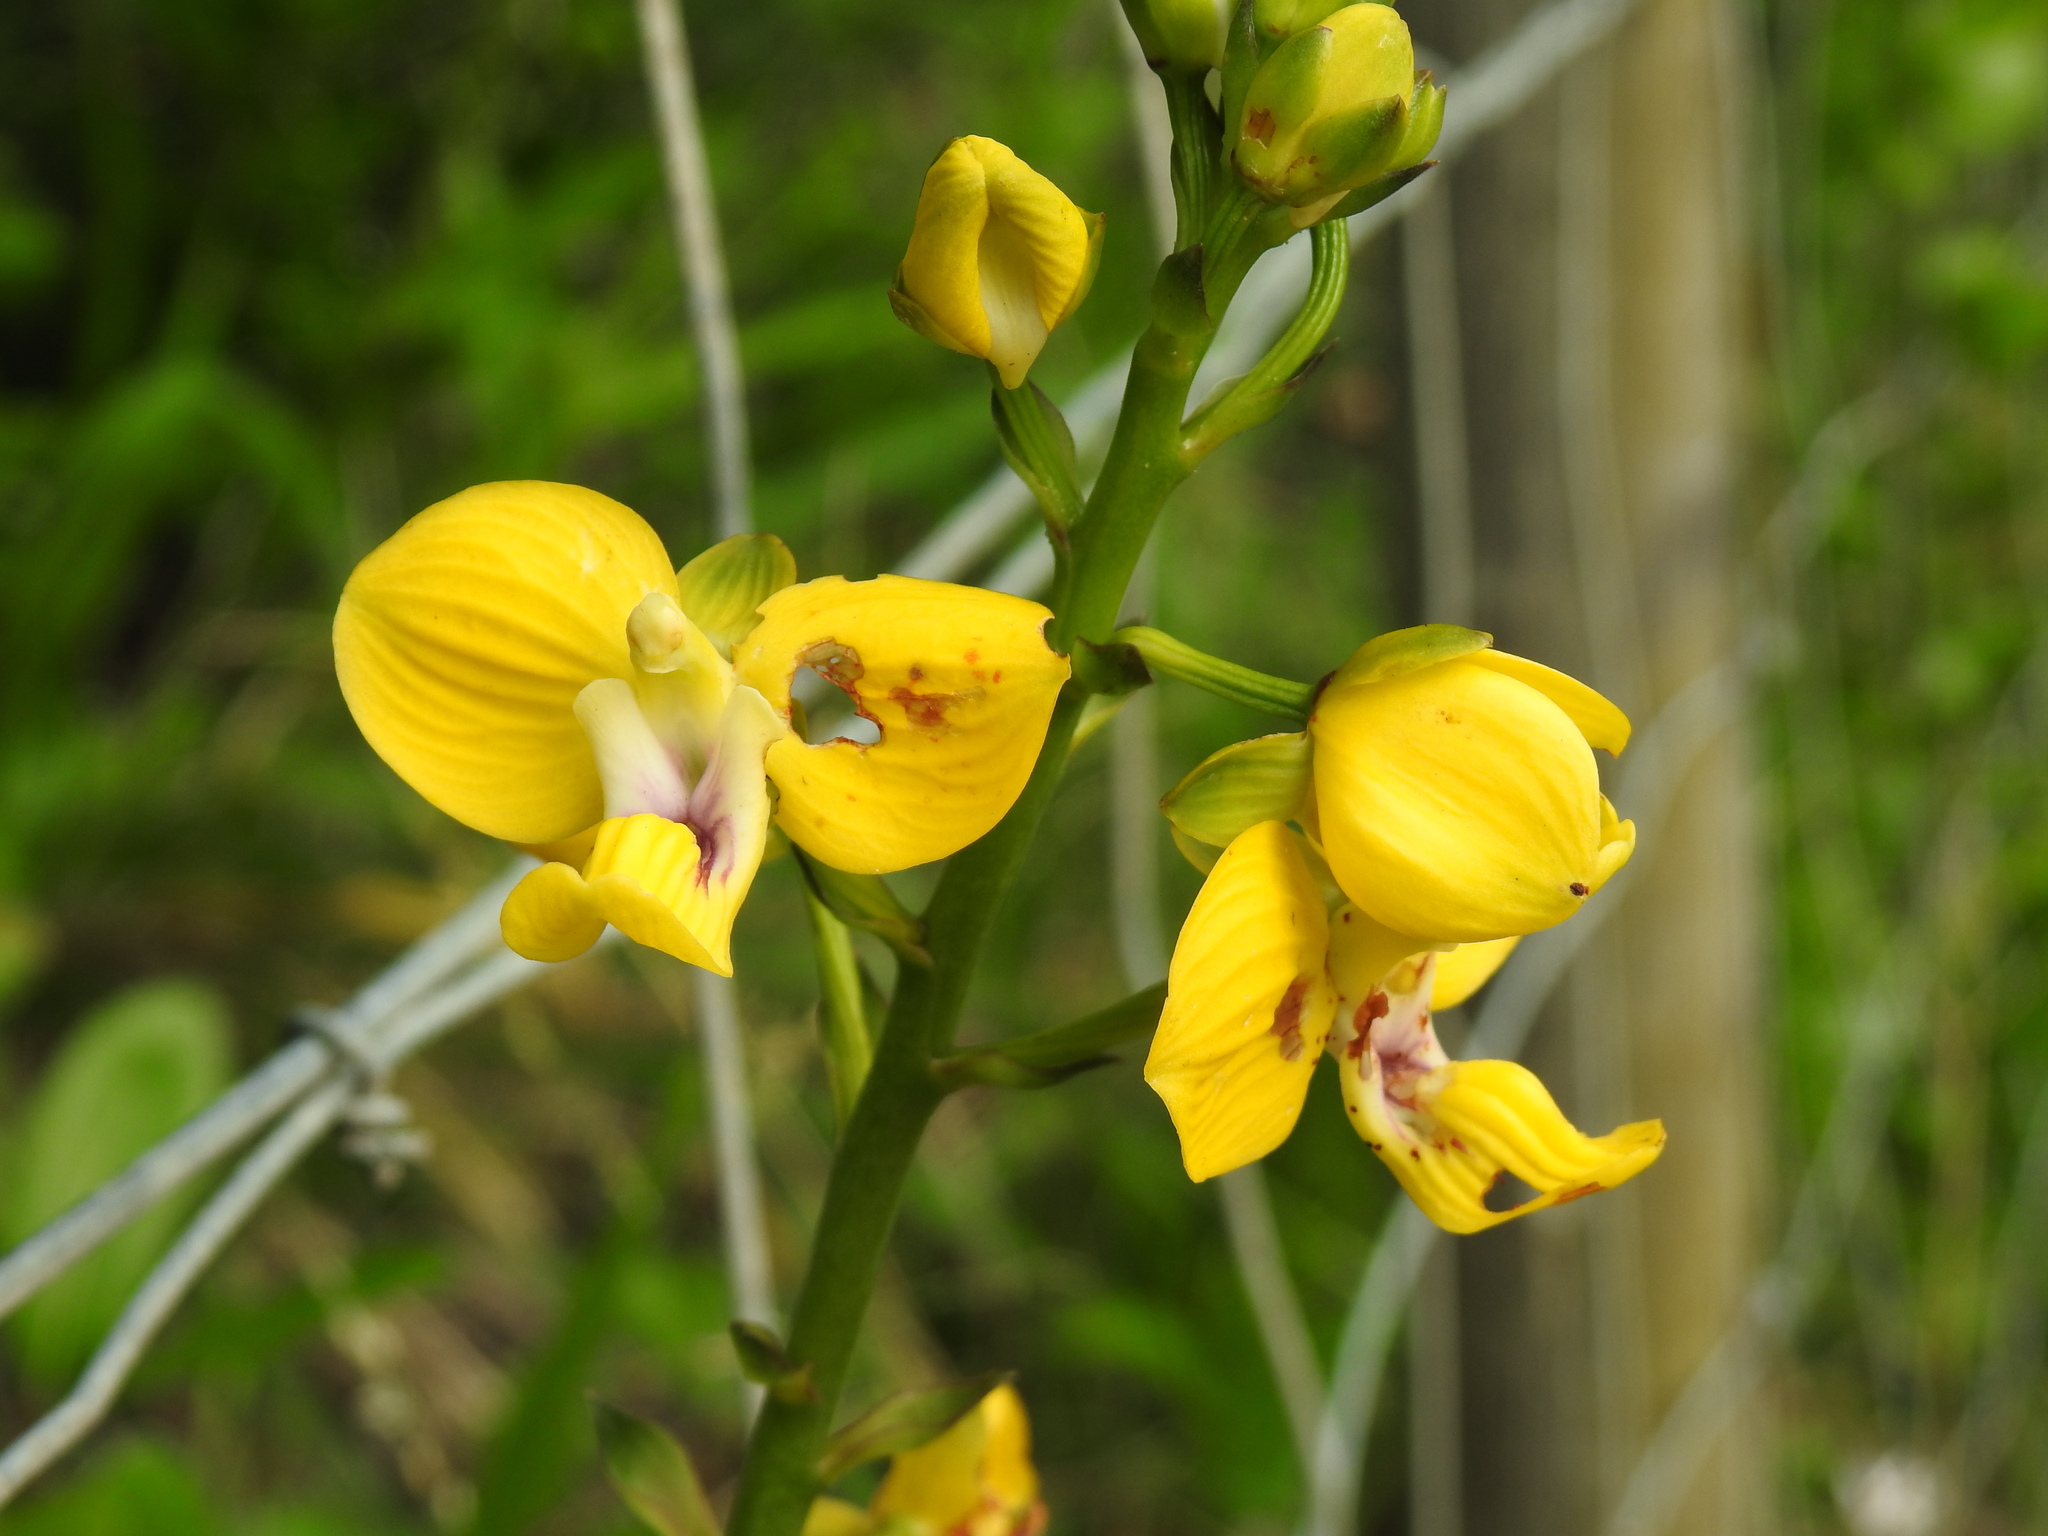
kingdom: Plantae
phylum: Tracheophyta
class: Liliopsida
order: Asparagales
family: Orchidaceae
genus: Eulophia
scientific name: Eulophia speciosa
